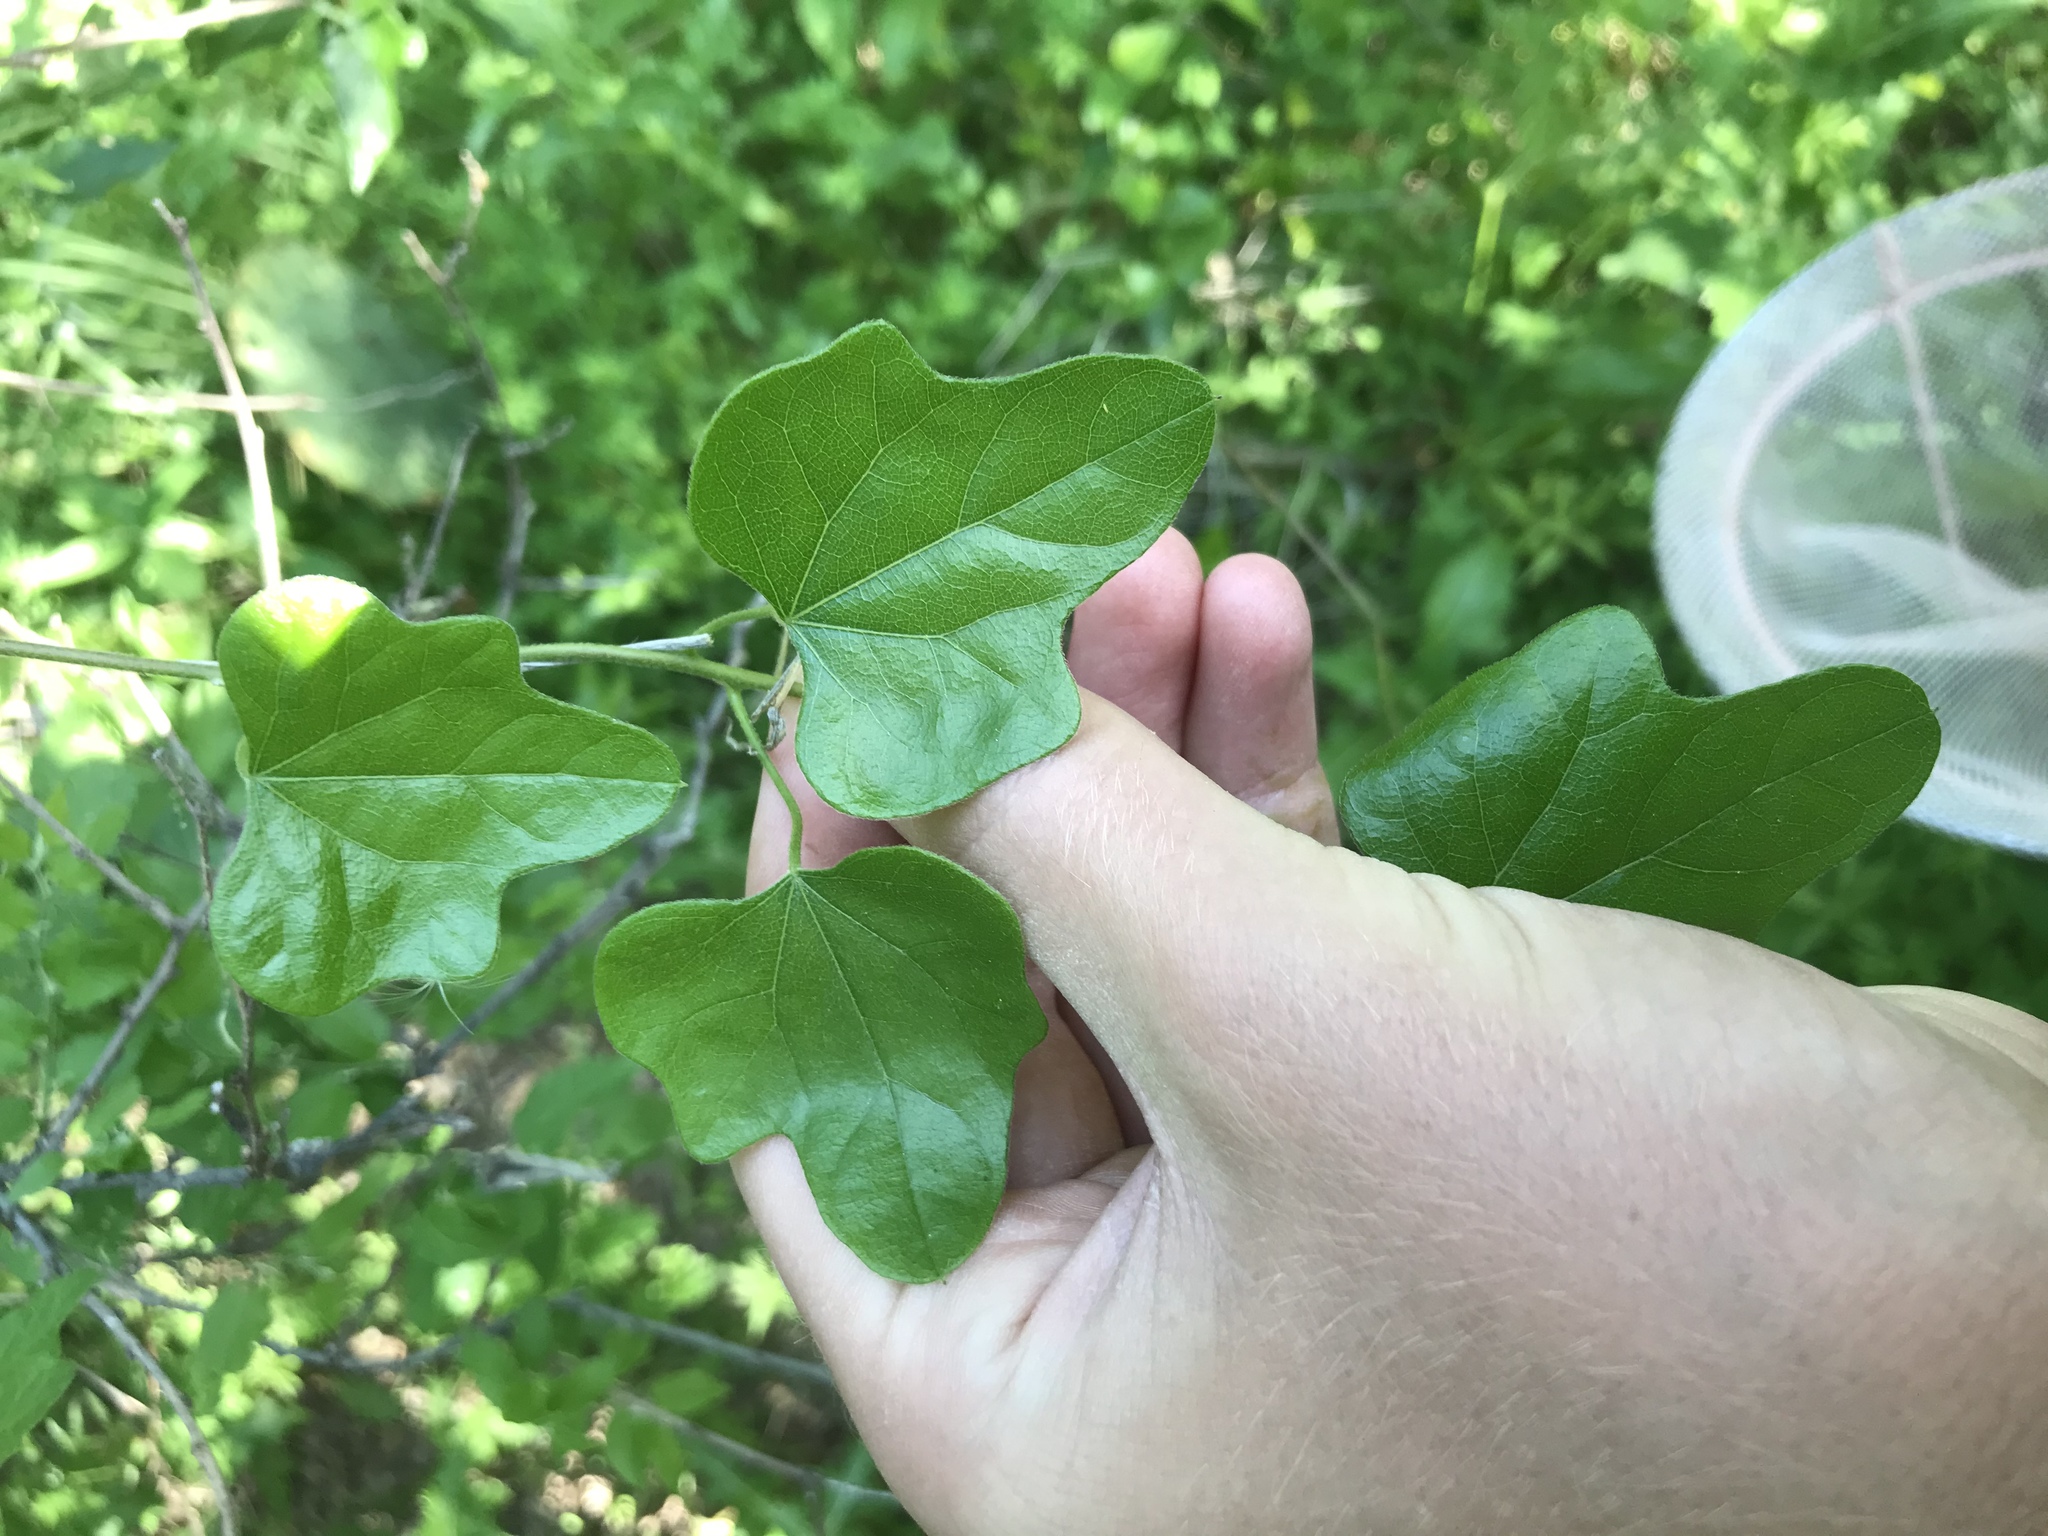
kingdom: Plantae
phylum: Tracheophyta
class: Magnoliopsida
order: Ranunculales
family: Menispermaceae
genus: Cocculus
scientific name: Cocculus carolinus
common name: Carolina moonseed
